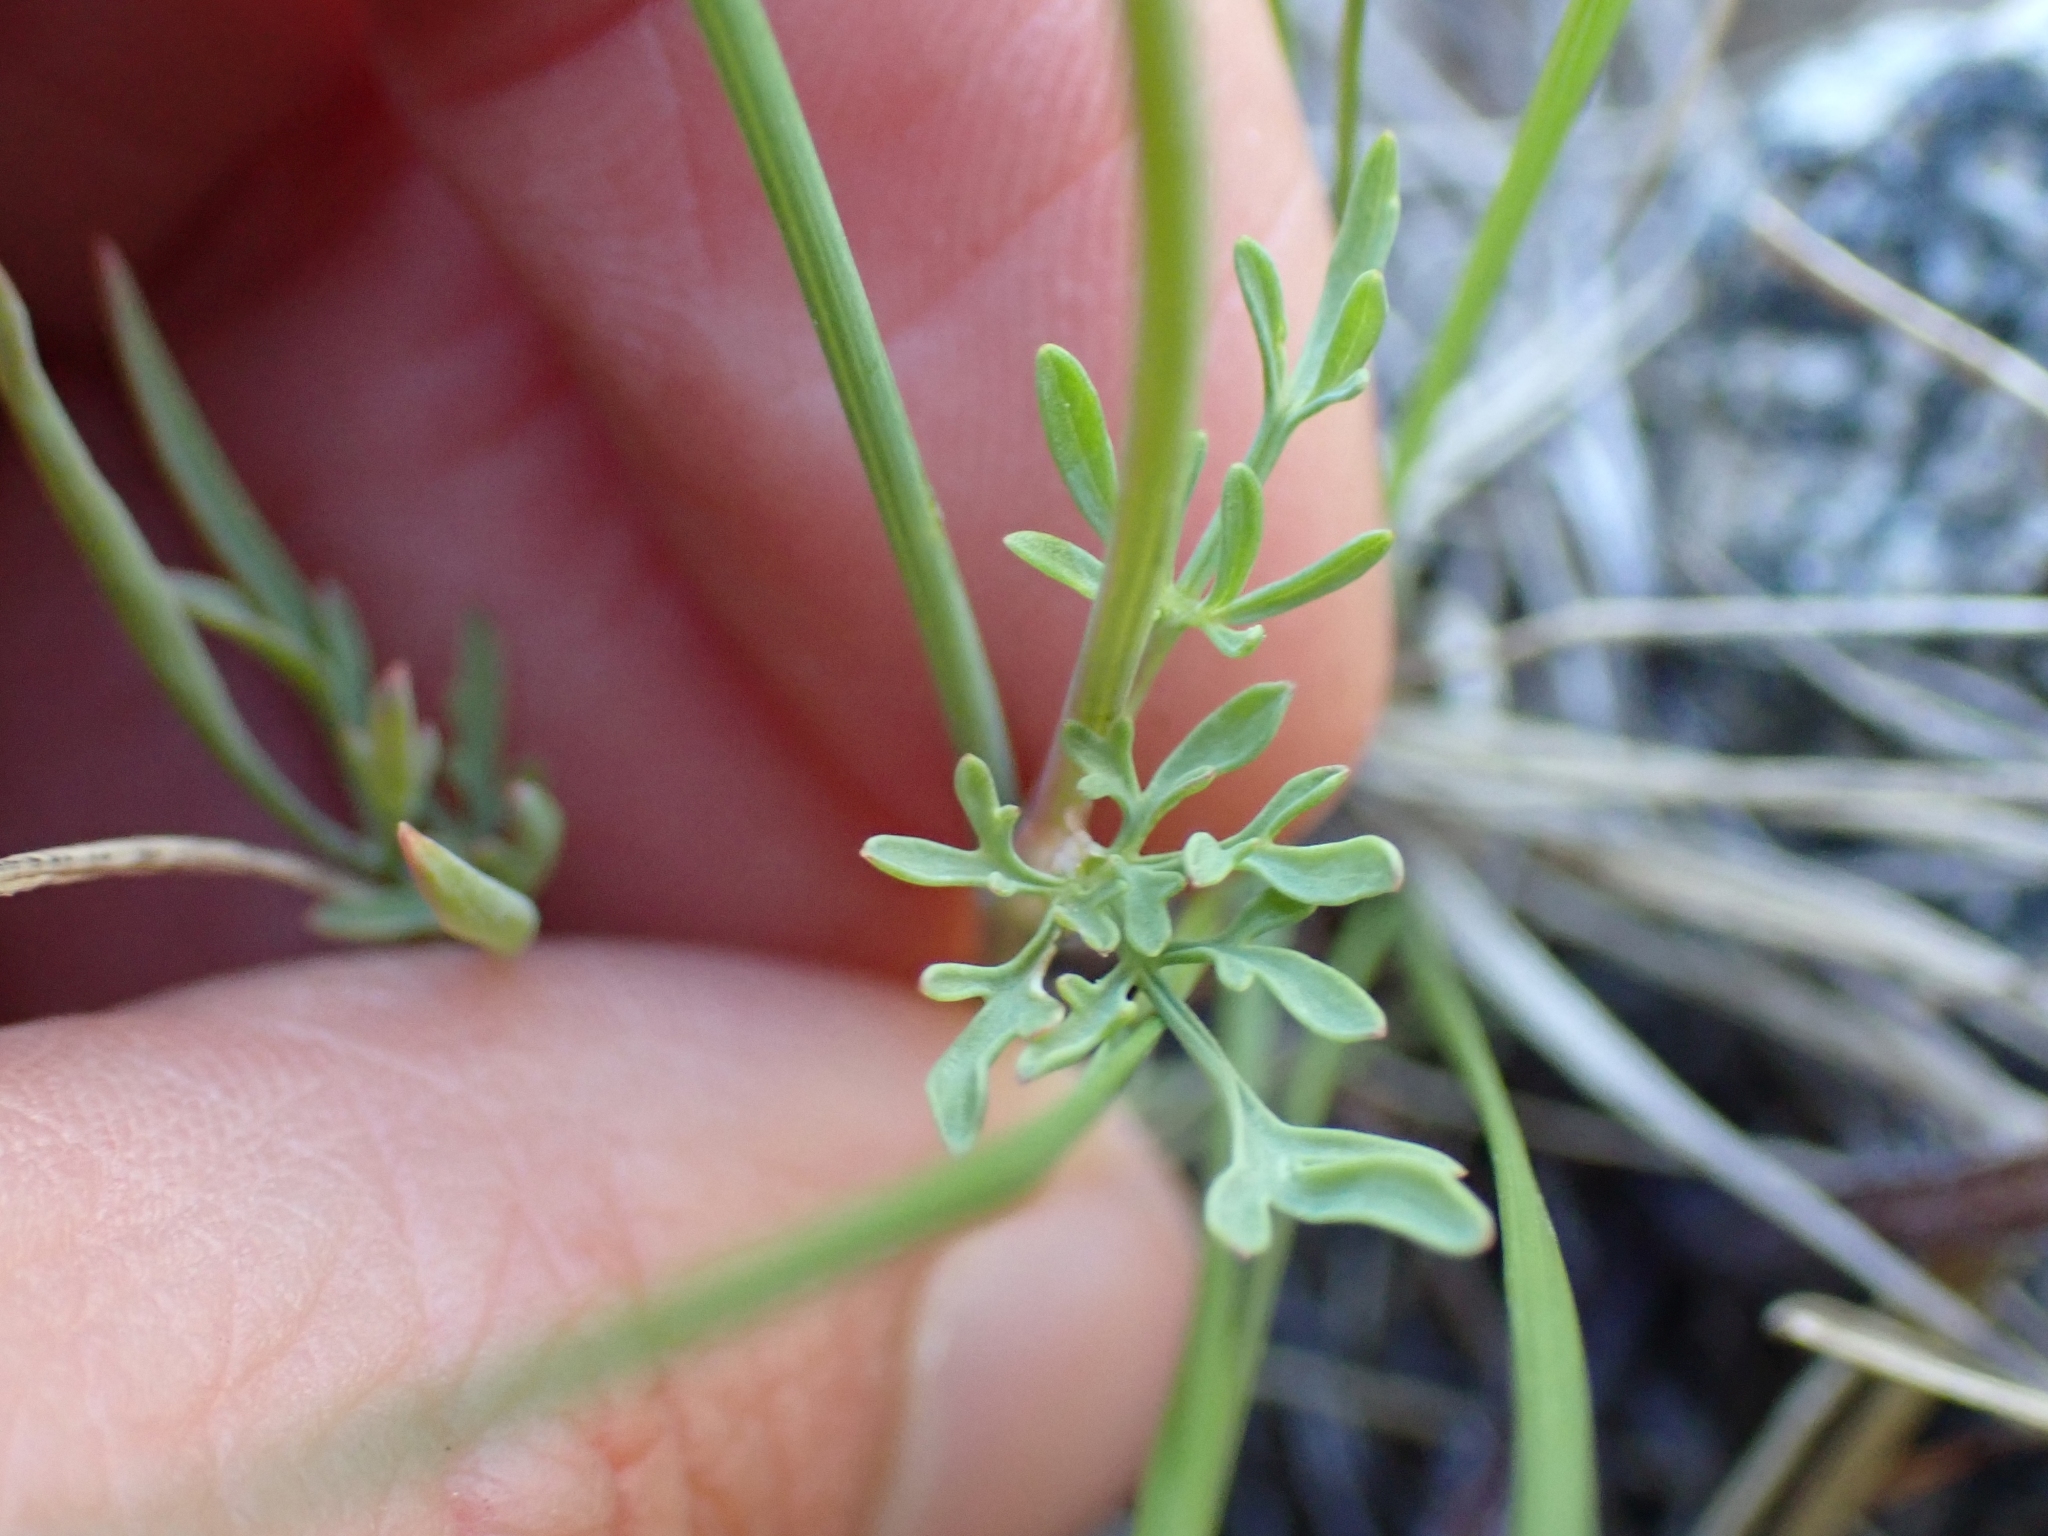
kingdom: Plantae
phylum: Tracheophyta
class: Magnoliopsida
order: Apiales
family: Apiaceae
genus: Lomatium
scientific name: Lomatium ambiguum
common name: Lacy lomatium
